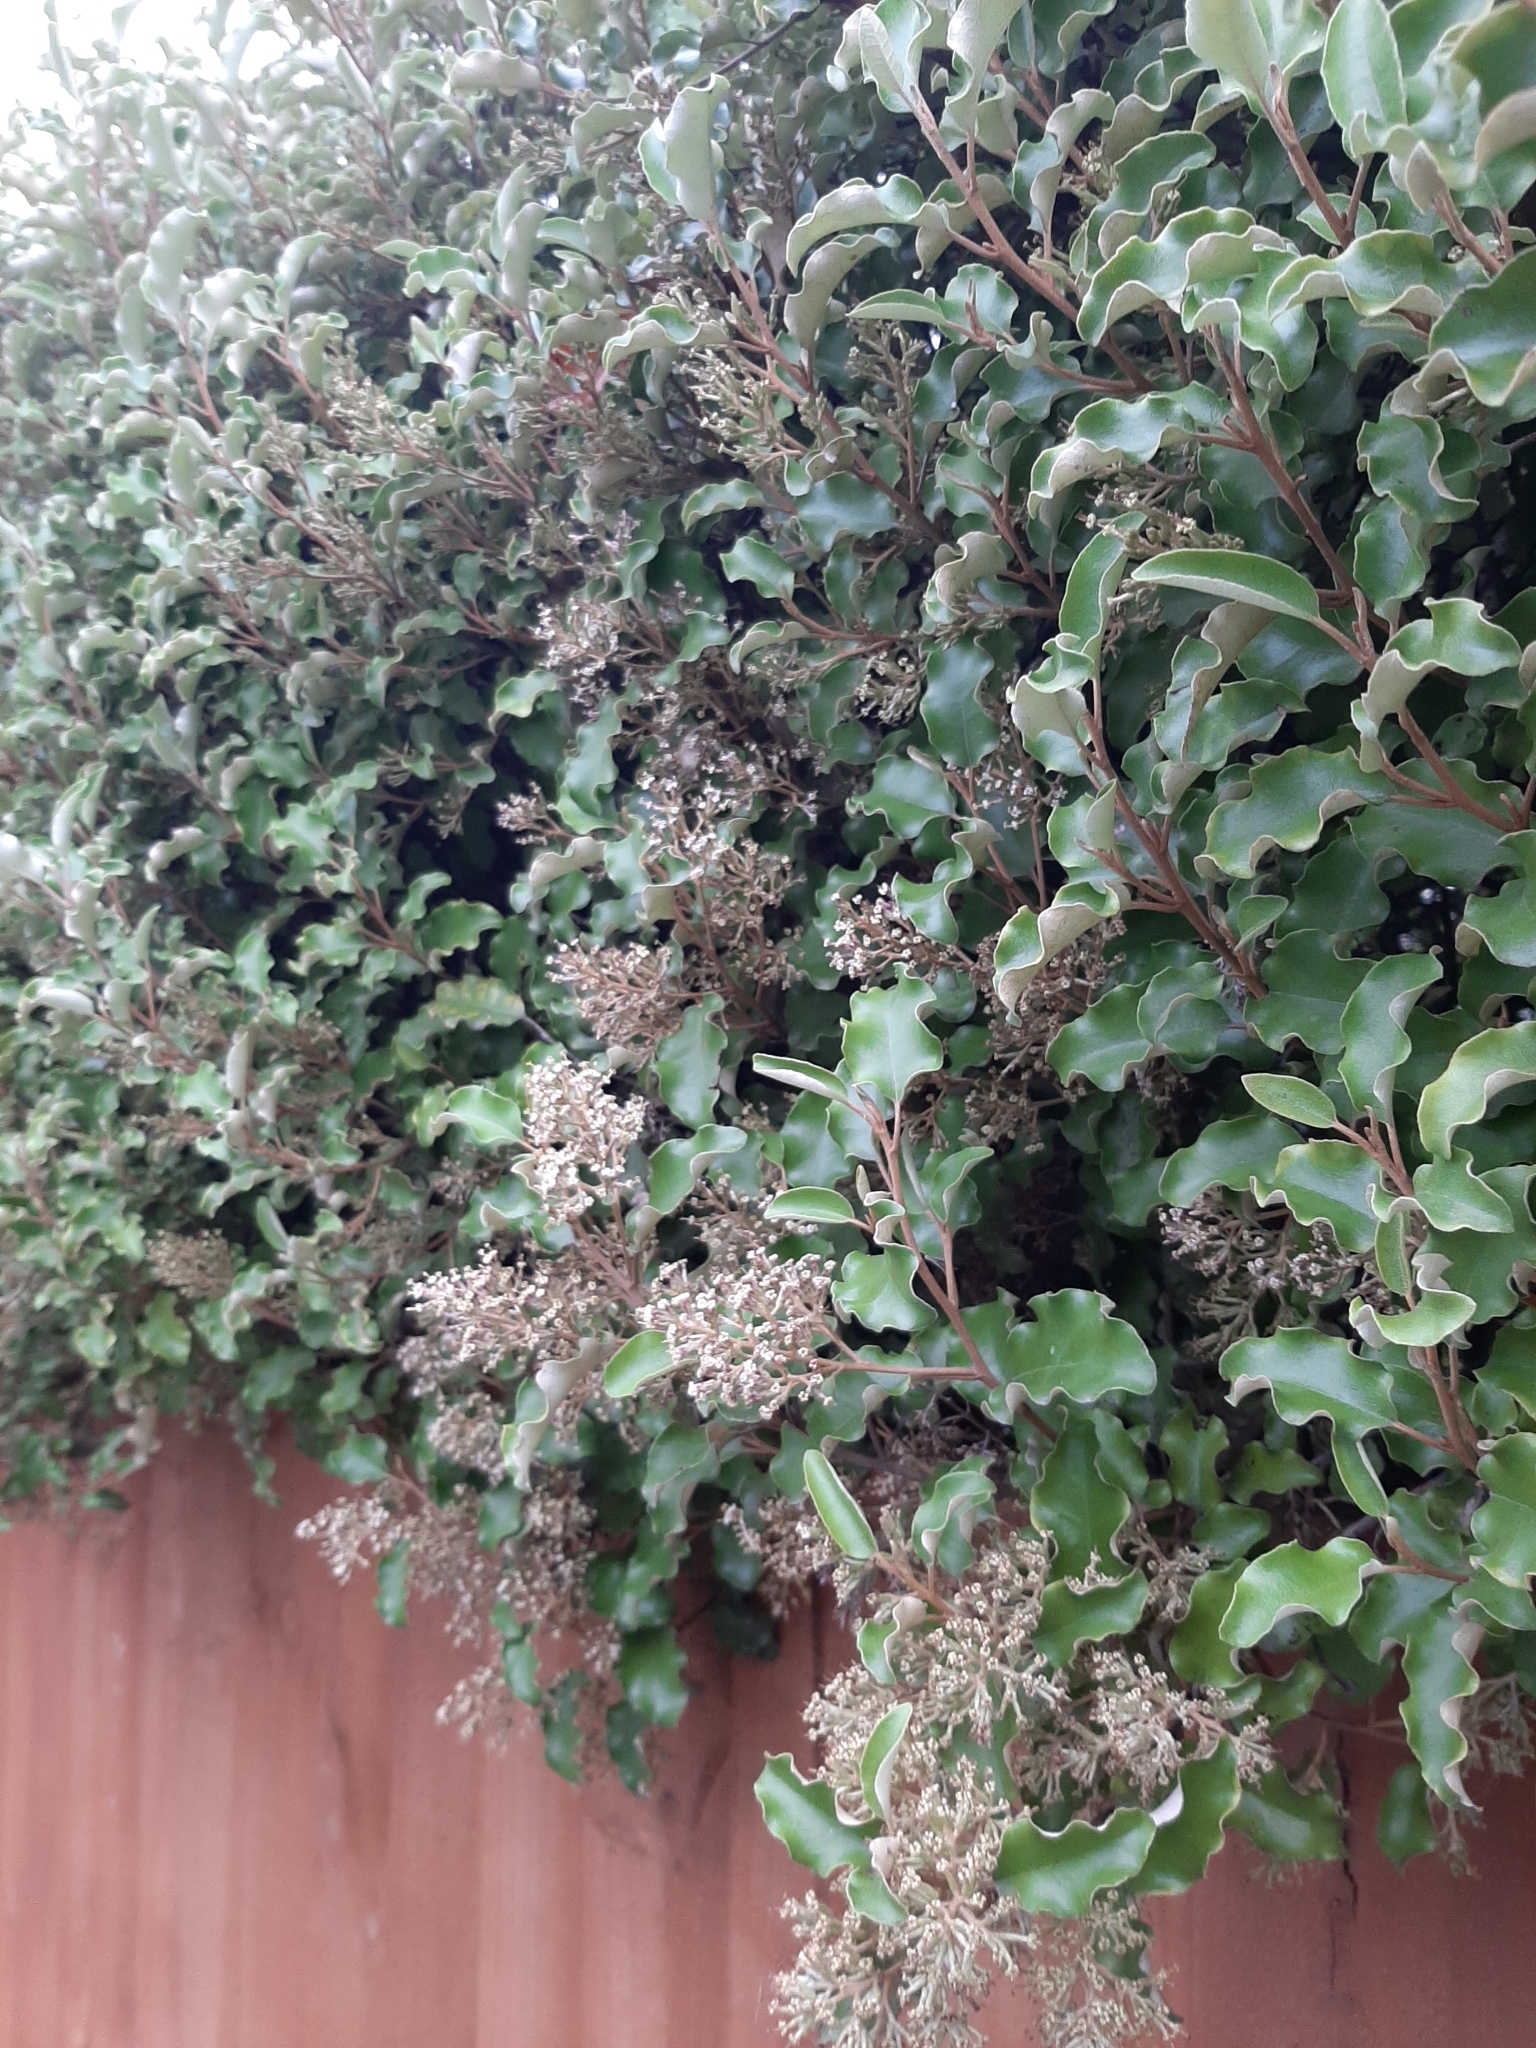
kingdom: Plantae
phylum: Tracheophyta
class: Magnoliopsida
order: Asterales
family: Asteraceae
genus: Olearia
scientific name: Olearia paniculata
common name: Akiraho
